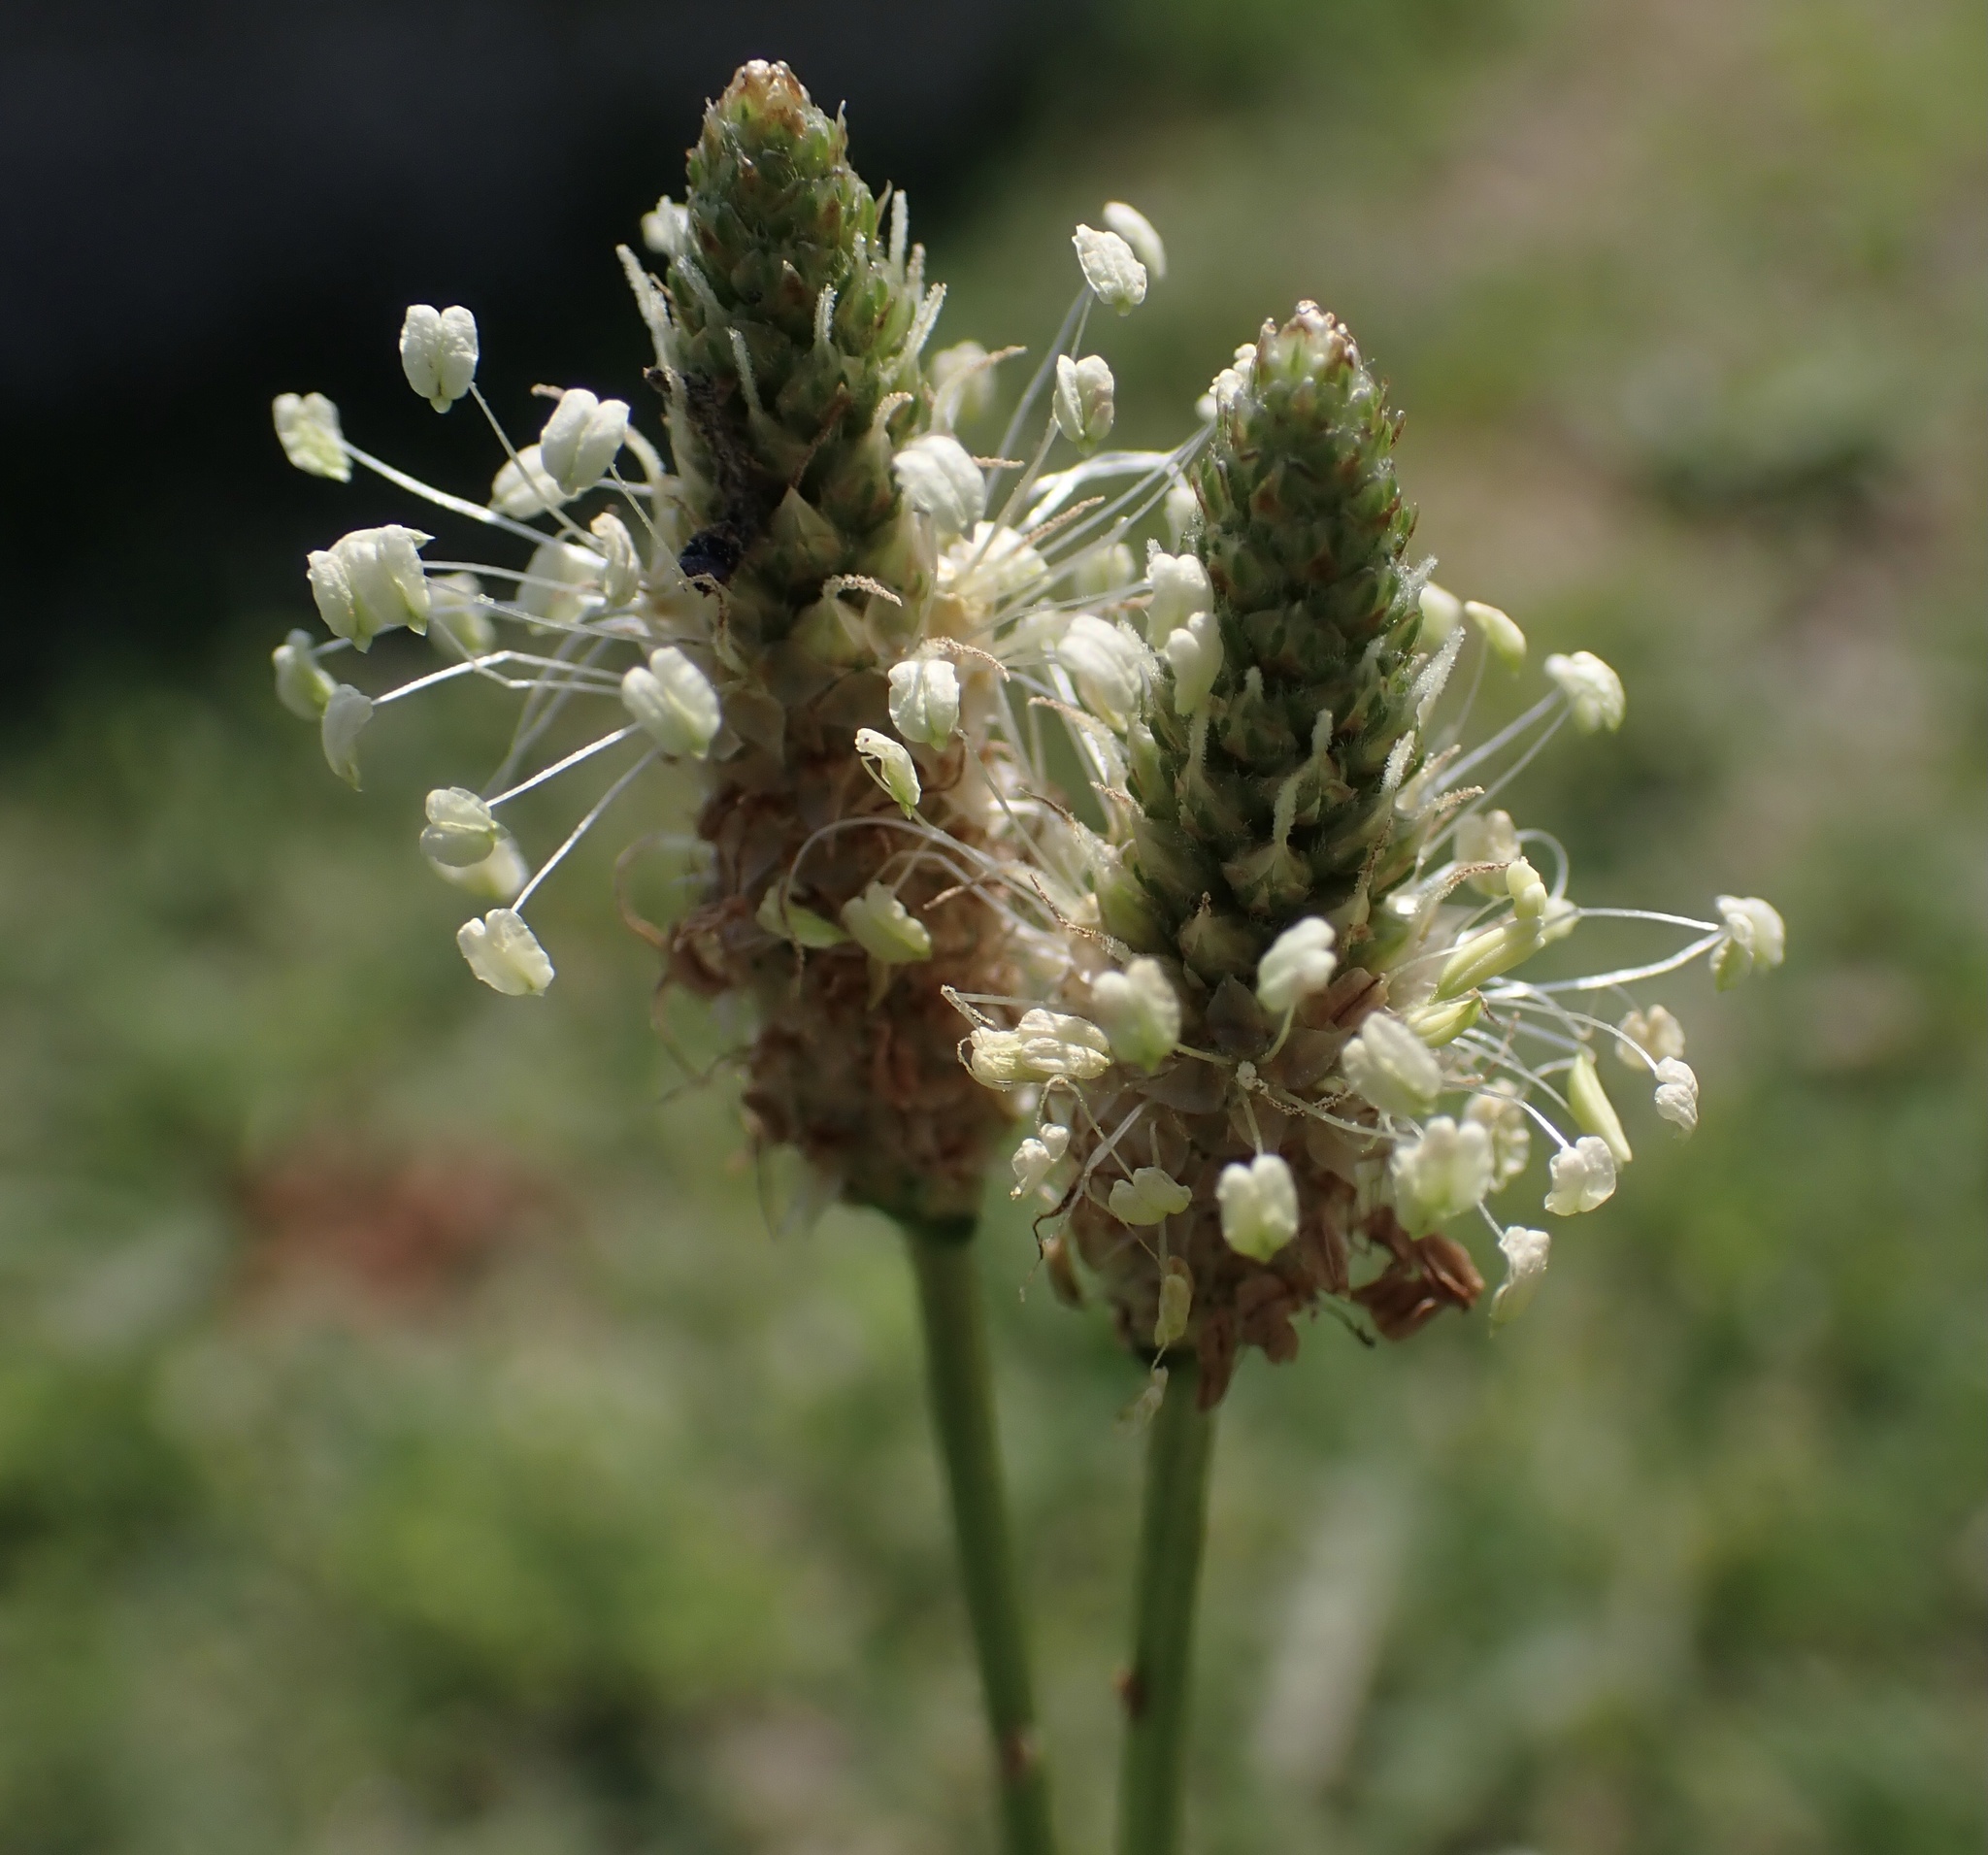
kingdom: Plantae
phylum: Tracheophyta
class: Magnoliopsida
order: Lamiales
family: Plantaginaceae
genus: Plantago
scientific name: Plantago lanceolata
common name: Ribwort plantain
